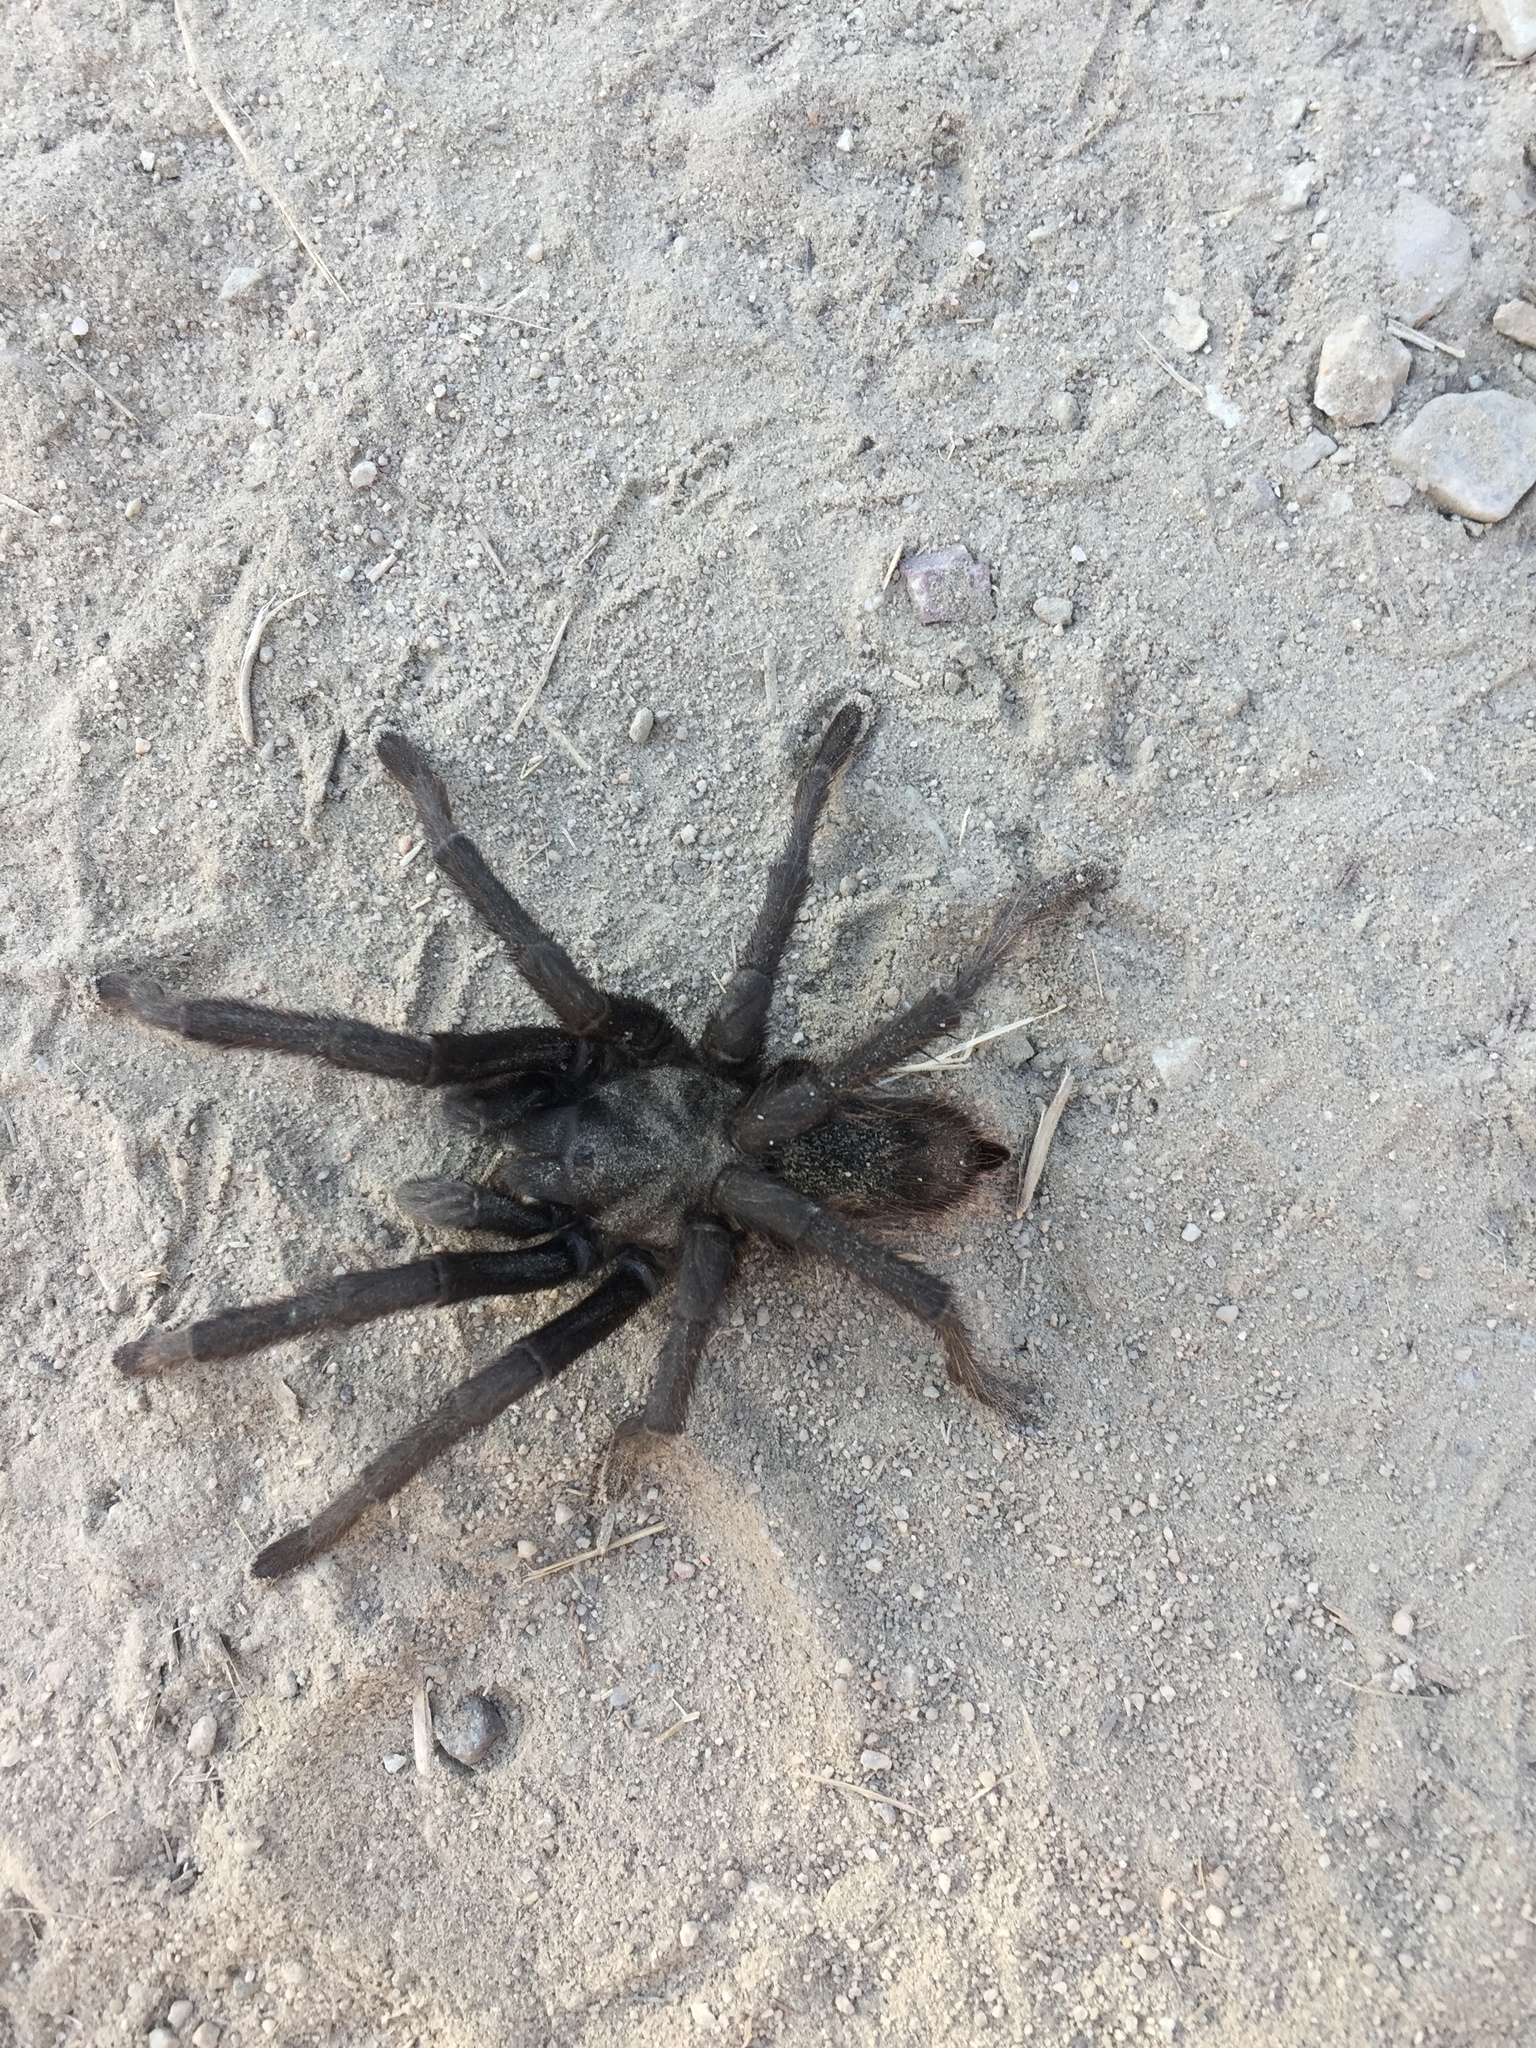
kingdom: Animalia
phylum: Arthropoda
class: Arachnida
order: Araneae
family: Theraphosidae
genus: Aphonopelma
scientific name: Aphonopelma eutylenum
